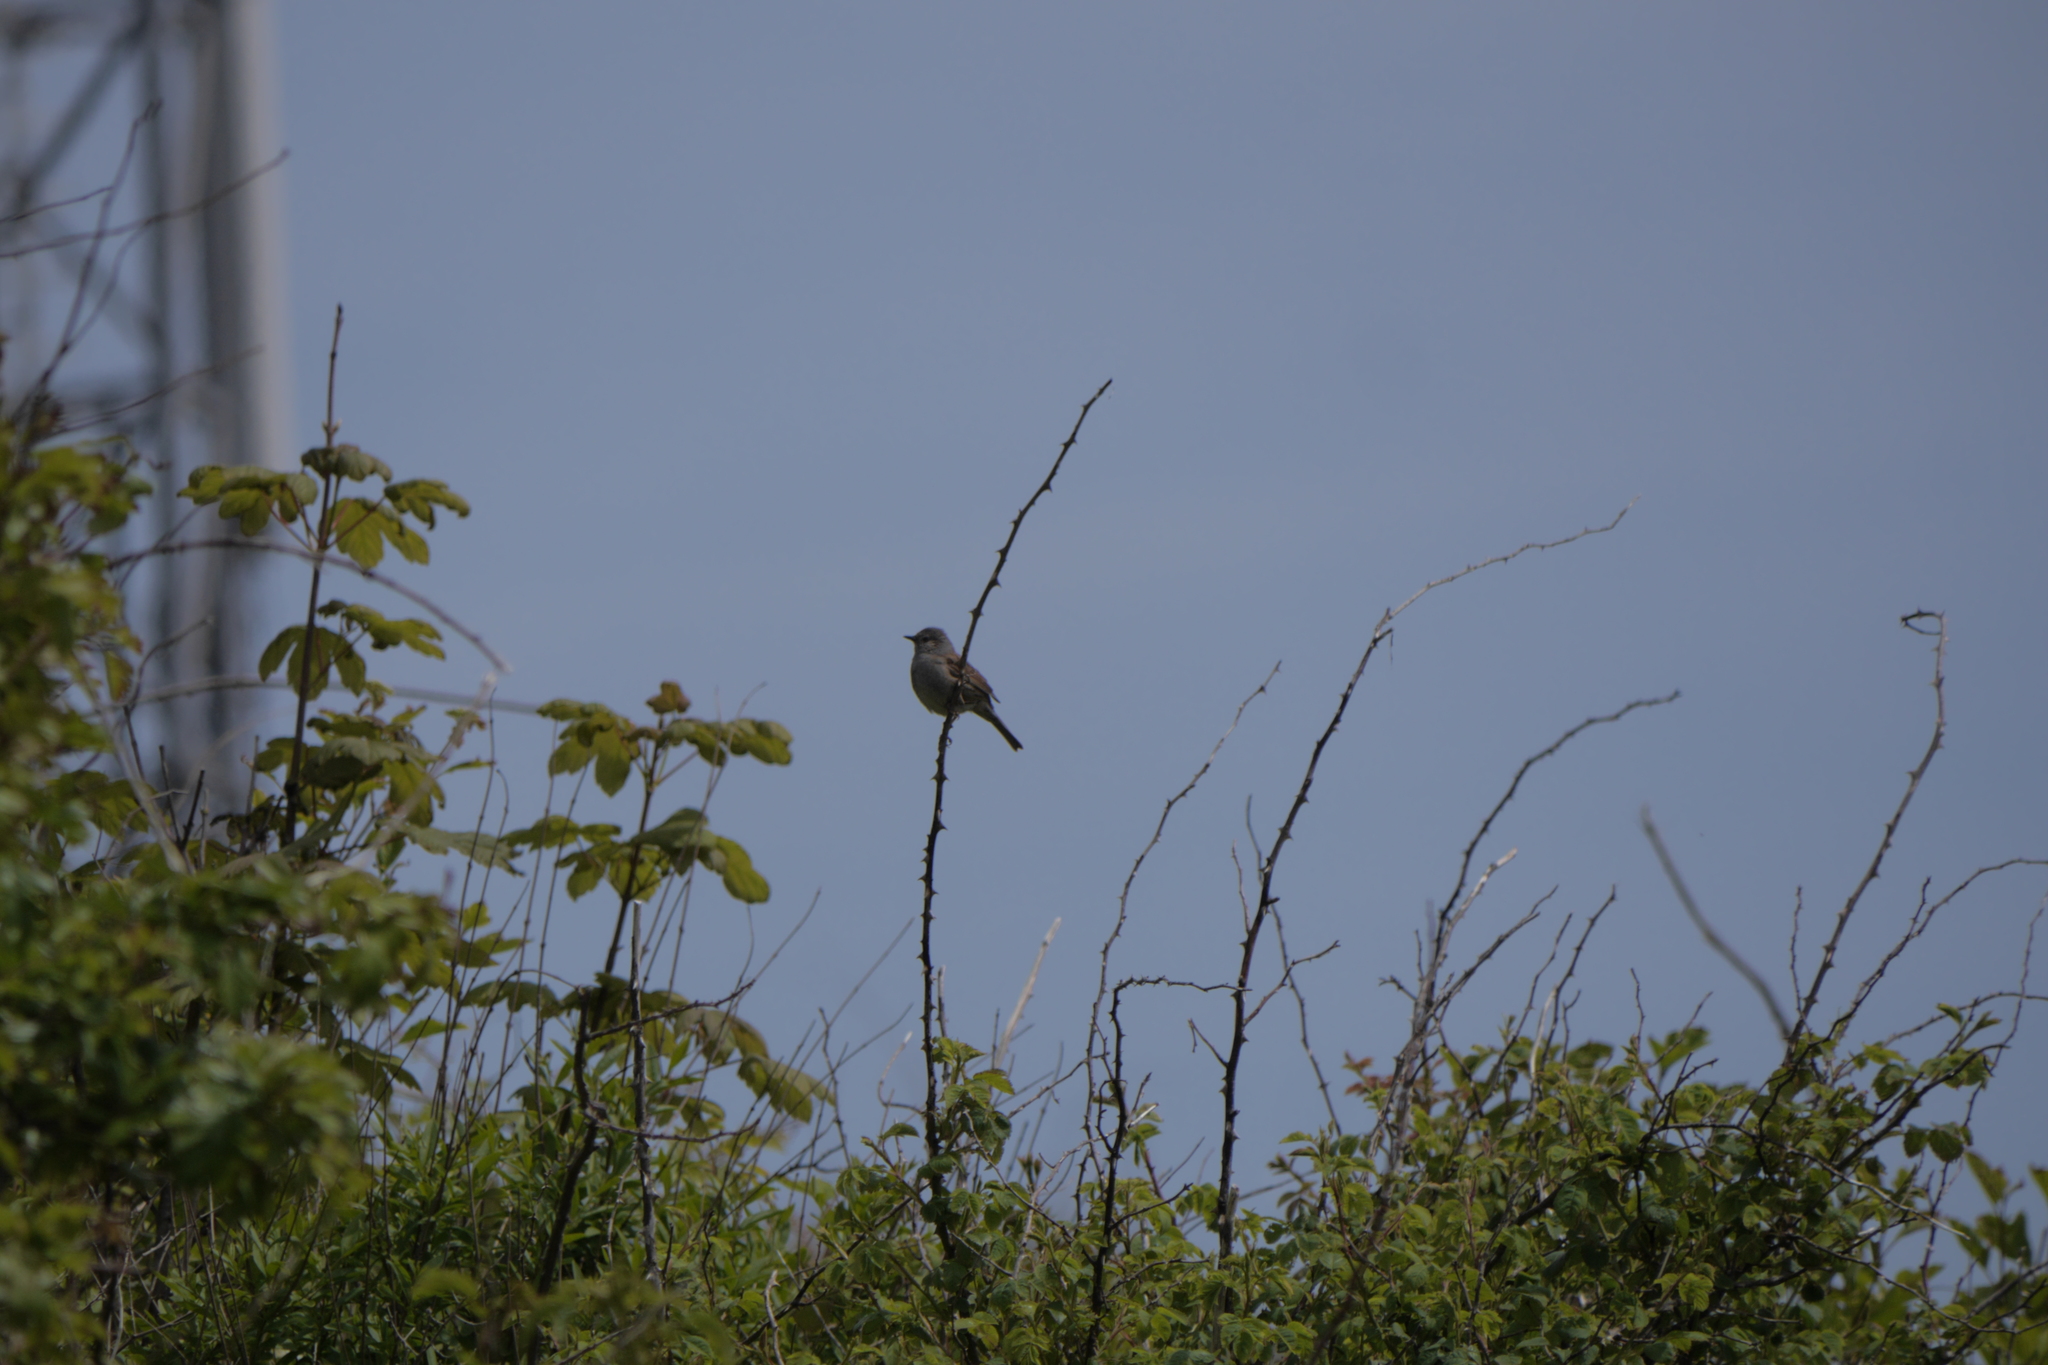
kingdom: Animalia
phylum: Chordata
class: Aves
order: Passeriformes
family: Prunellidae
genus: Prunella
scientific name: Prunella modularis
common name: Dunnock
